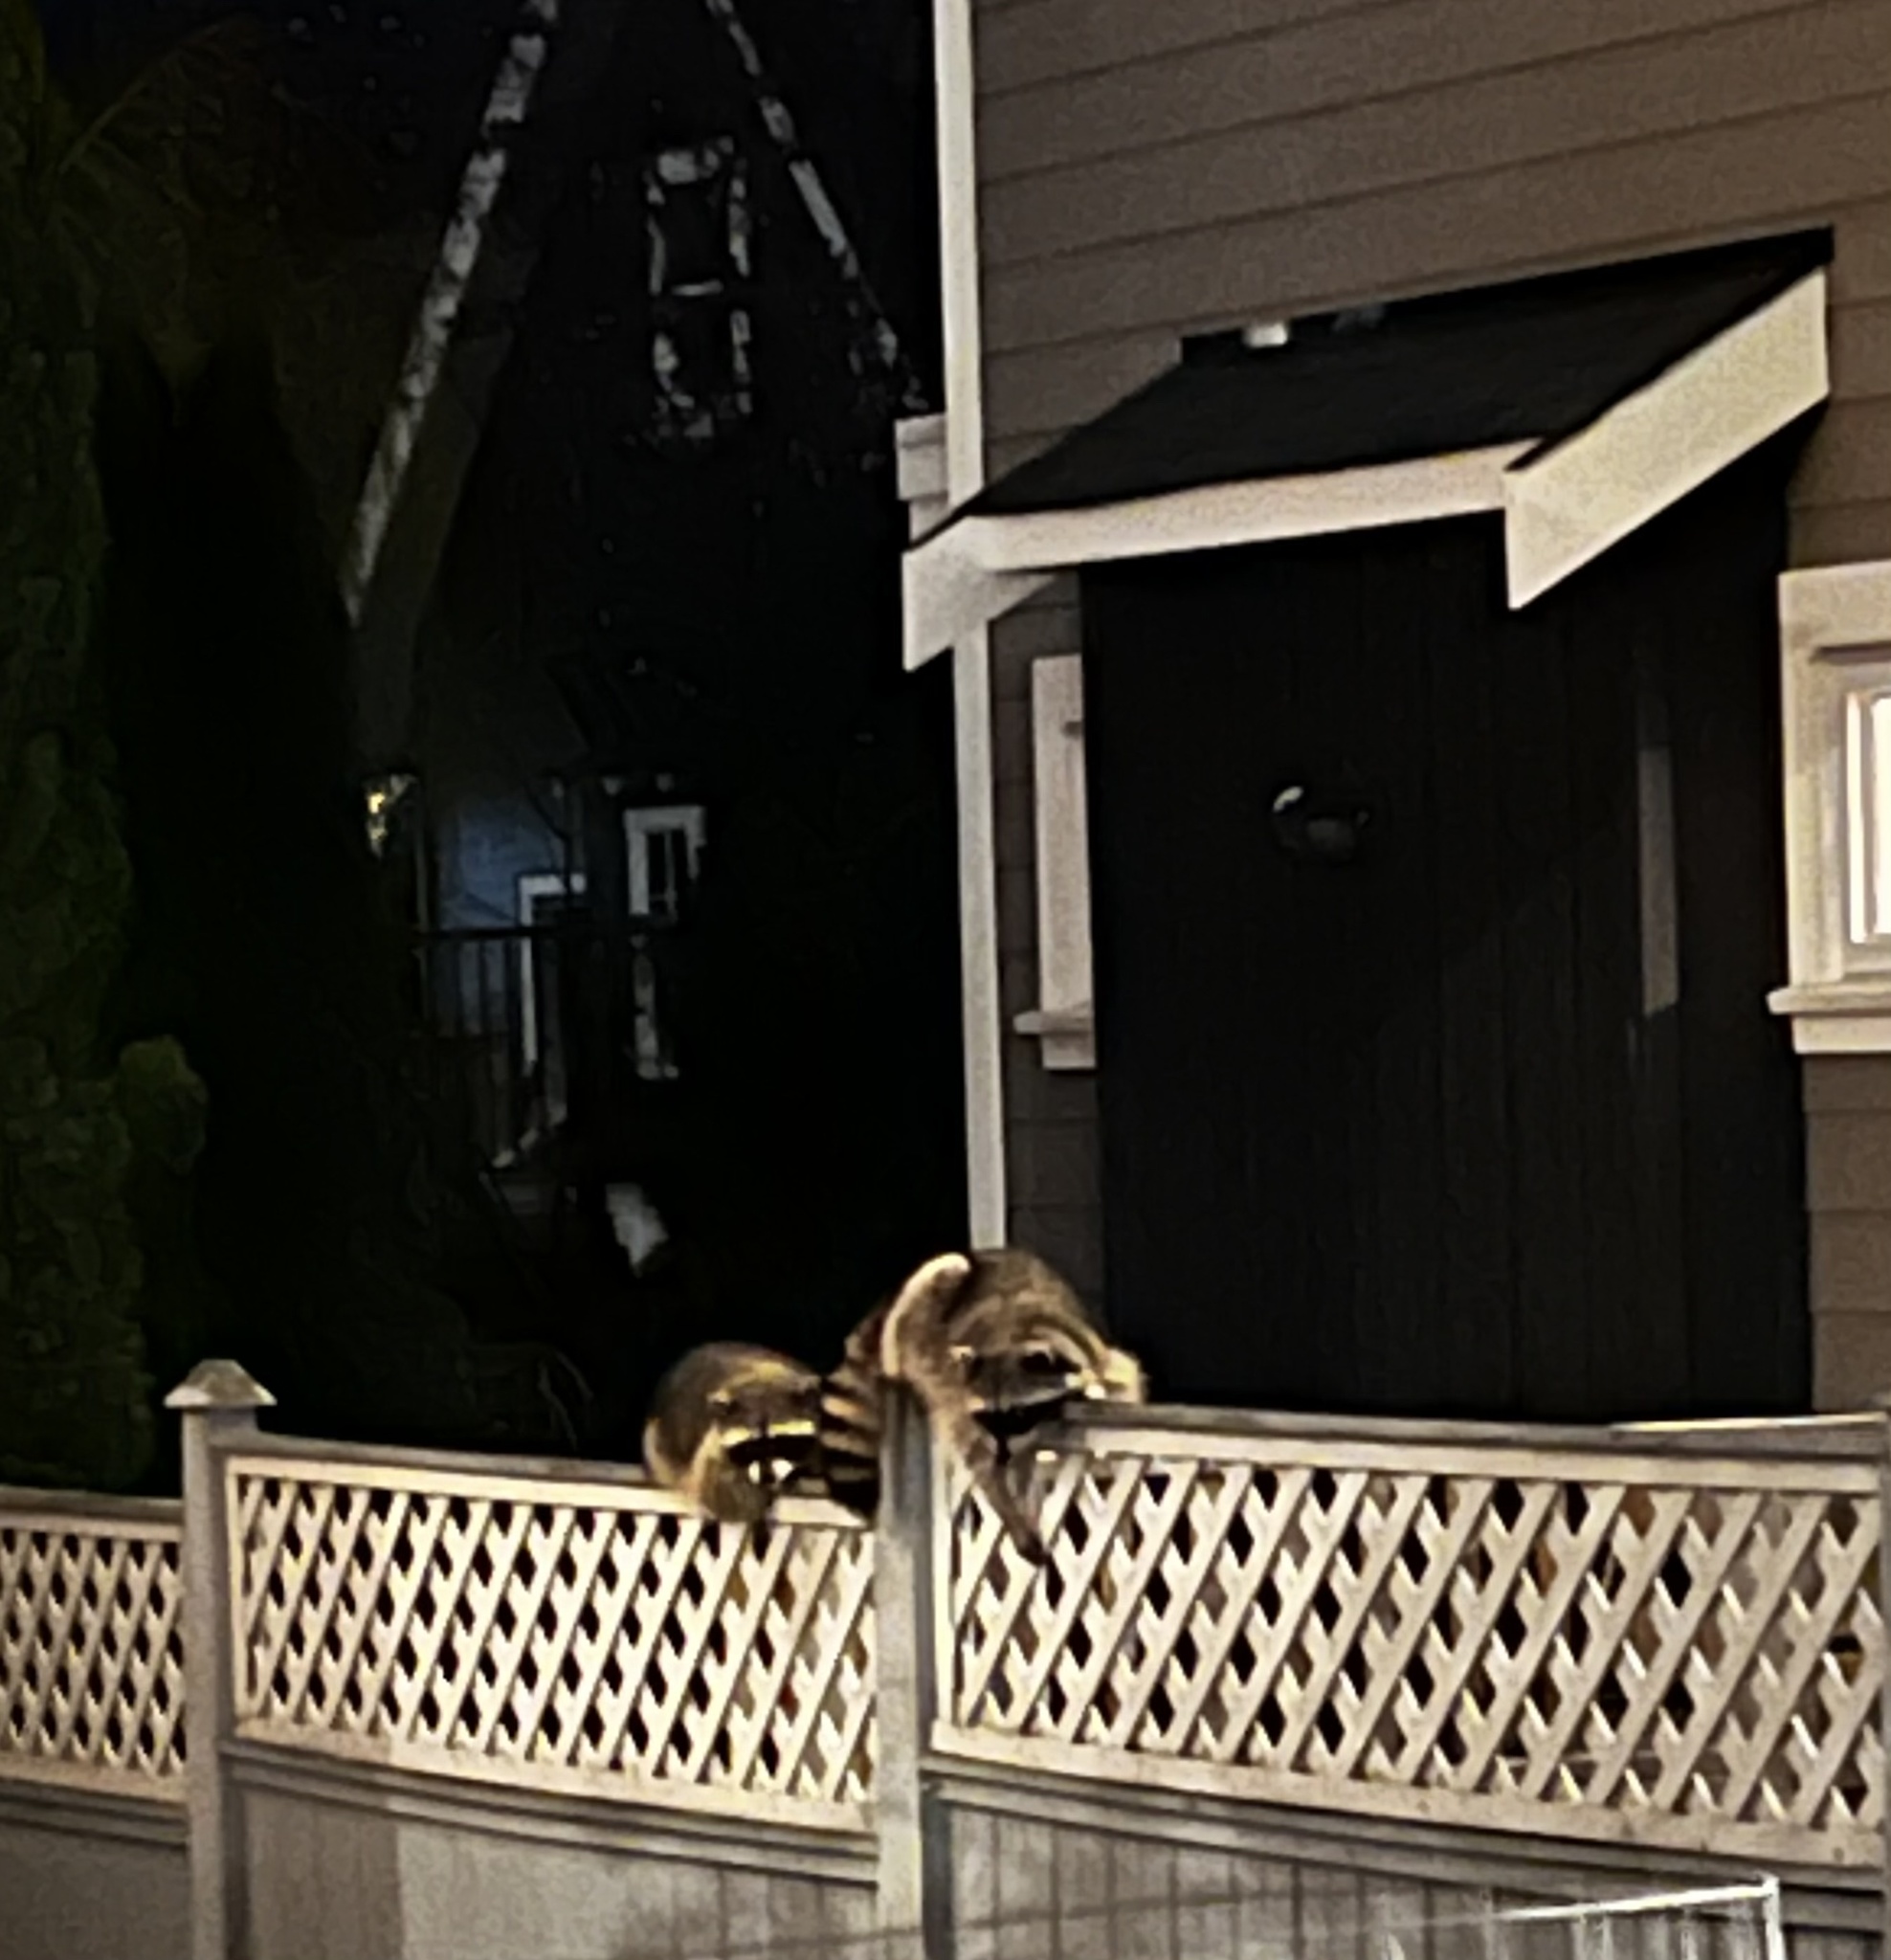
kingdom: Animalia
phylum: Chordata
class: Mammalia
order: Carnivora
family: Procyonidae
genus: Procyon
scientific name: Procyon lotor
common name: Raccoon
